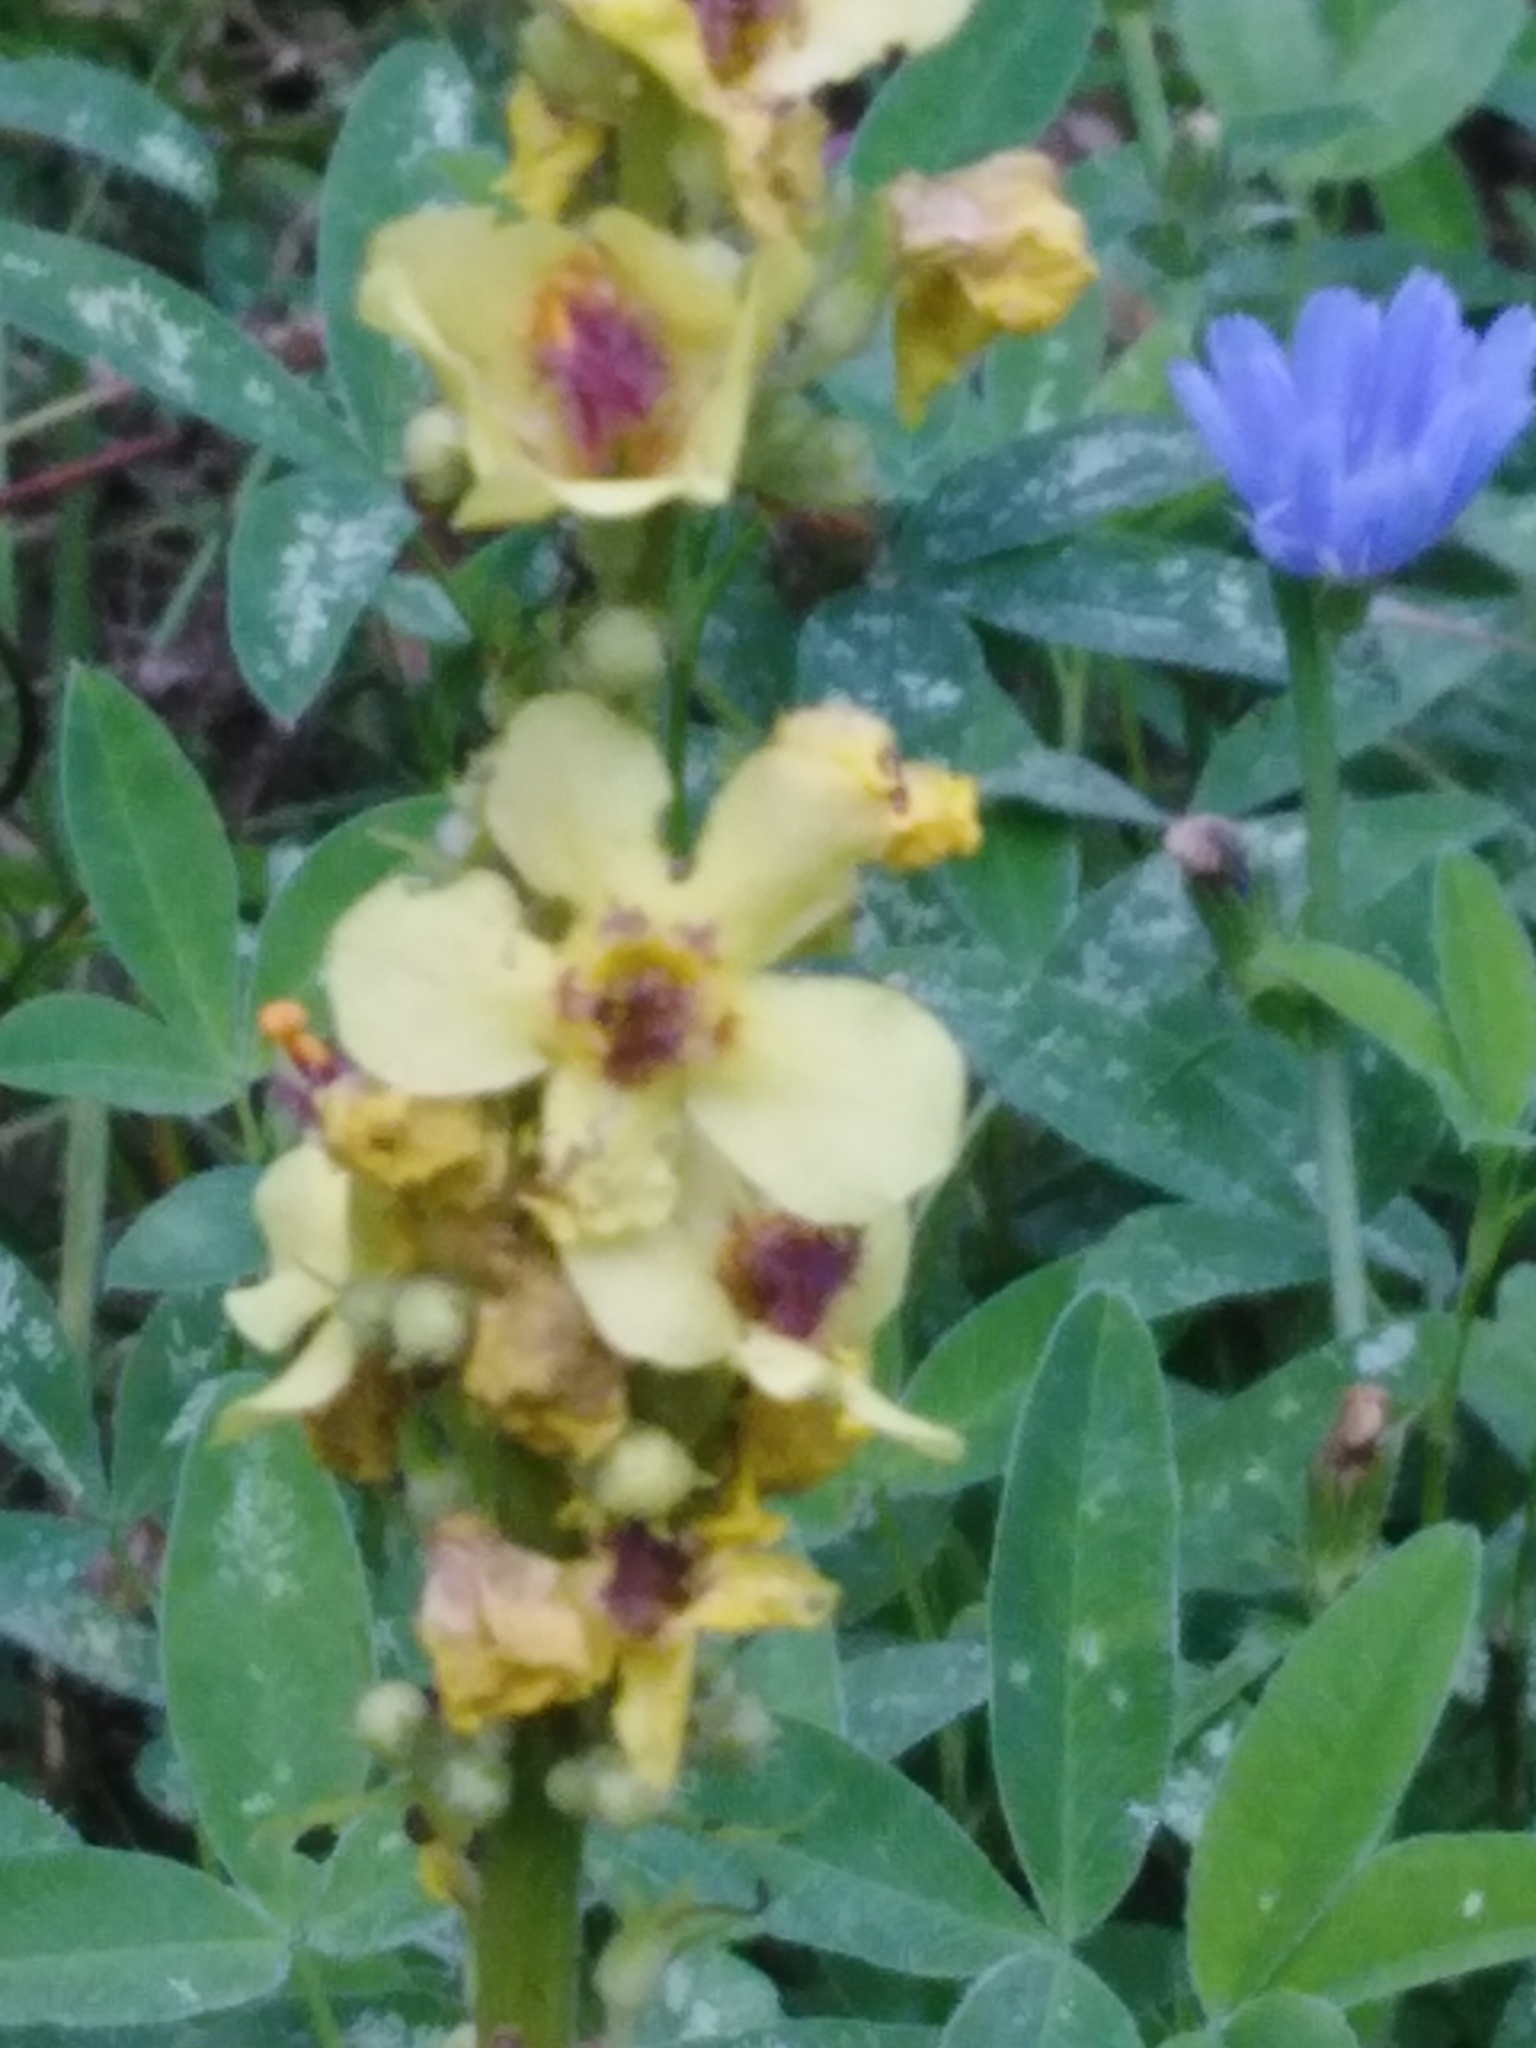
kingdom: Plantae
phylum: Tracheophyta
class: Magnoliopsida
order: Lamiales
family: Scrophulariaceae
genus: Verbascum
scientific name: Verbascum nigrum
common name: Dark mullein
